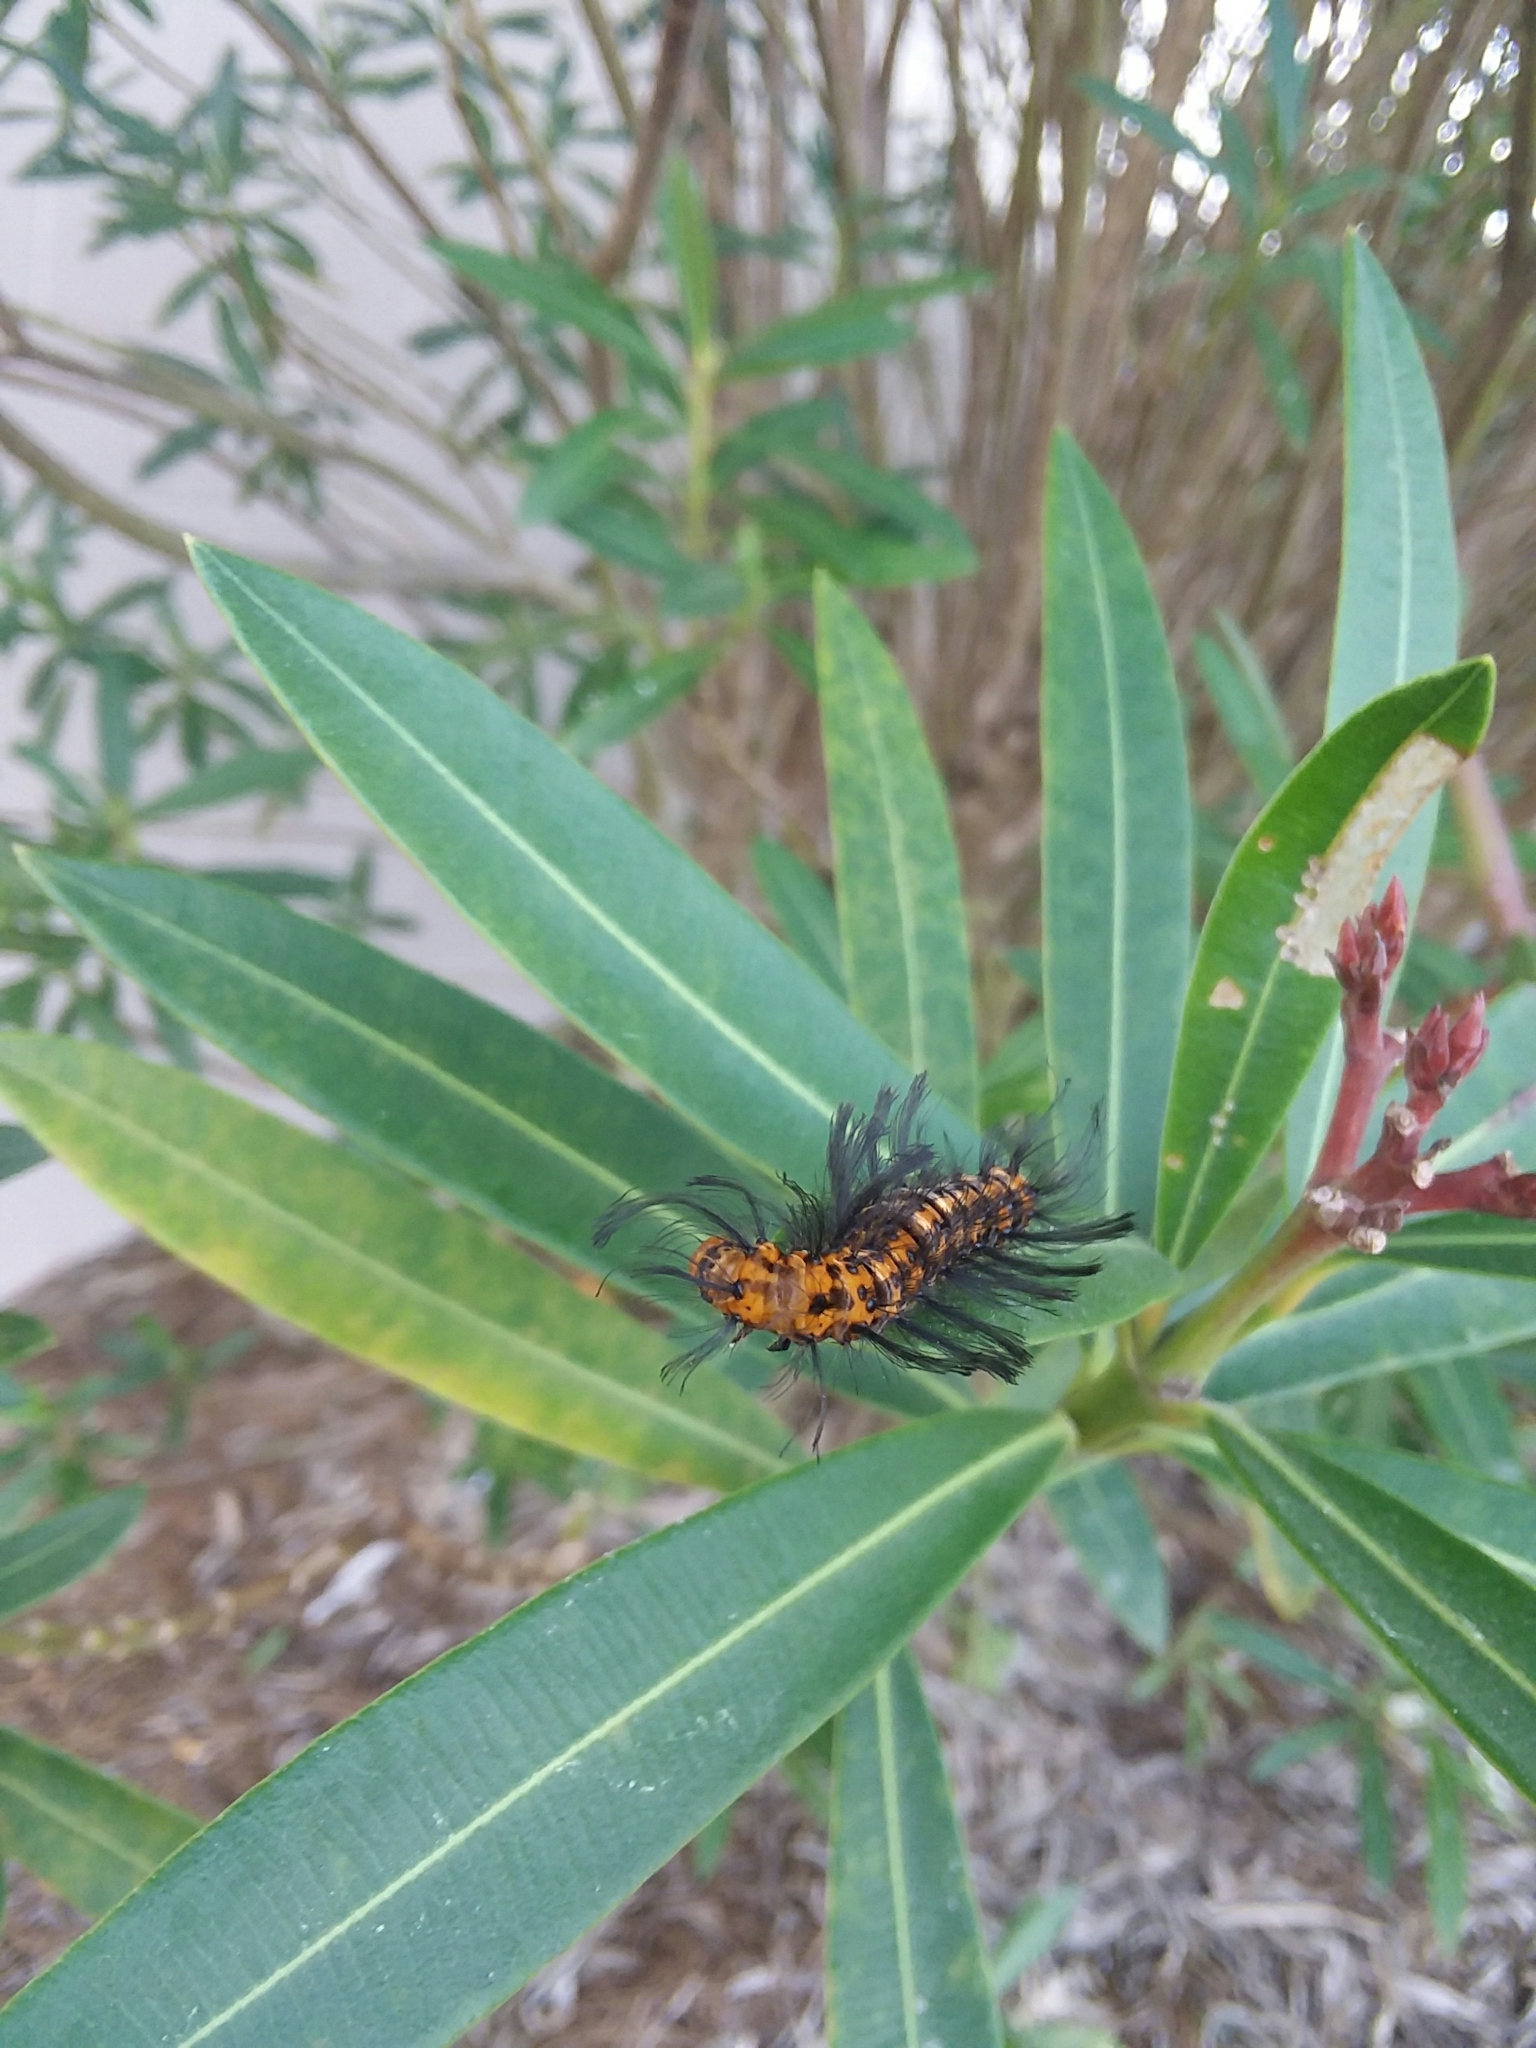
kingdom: Animalia
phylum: Arthropoda
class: Insecta
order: Lepidoptera
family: Erebidae
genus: Syntomeida
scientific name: Syntomeida epilais
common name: Polka-dot wasp moth
